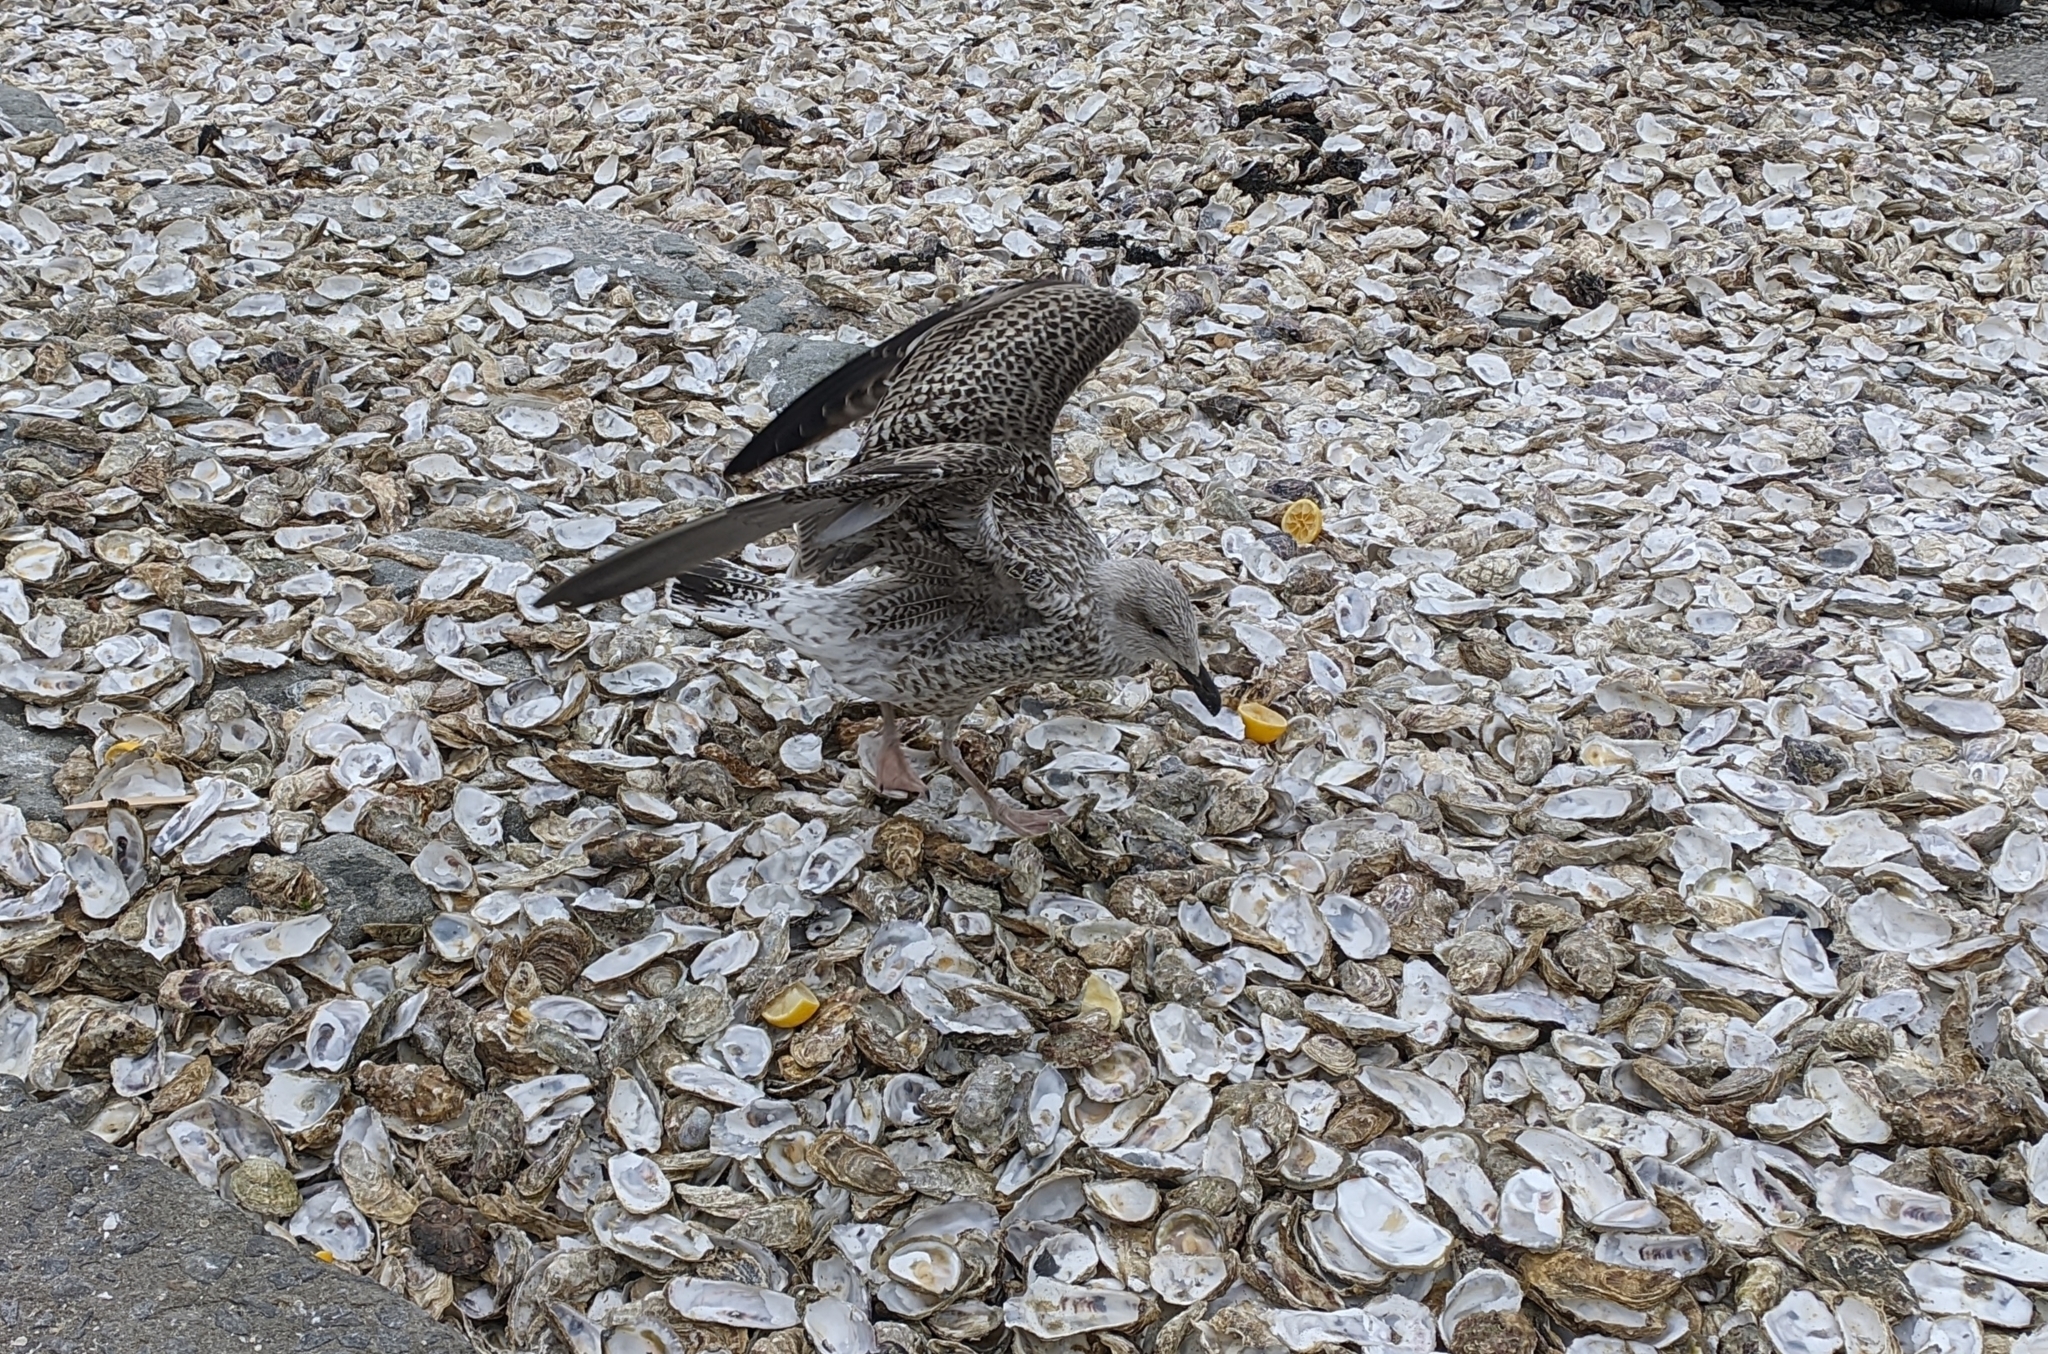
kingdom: Animalia
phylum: Chordata
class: Aves
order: Charadriiformes
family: Laridae
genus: Larus
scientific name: Larus argentatus
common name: Herring gull
